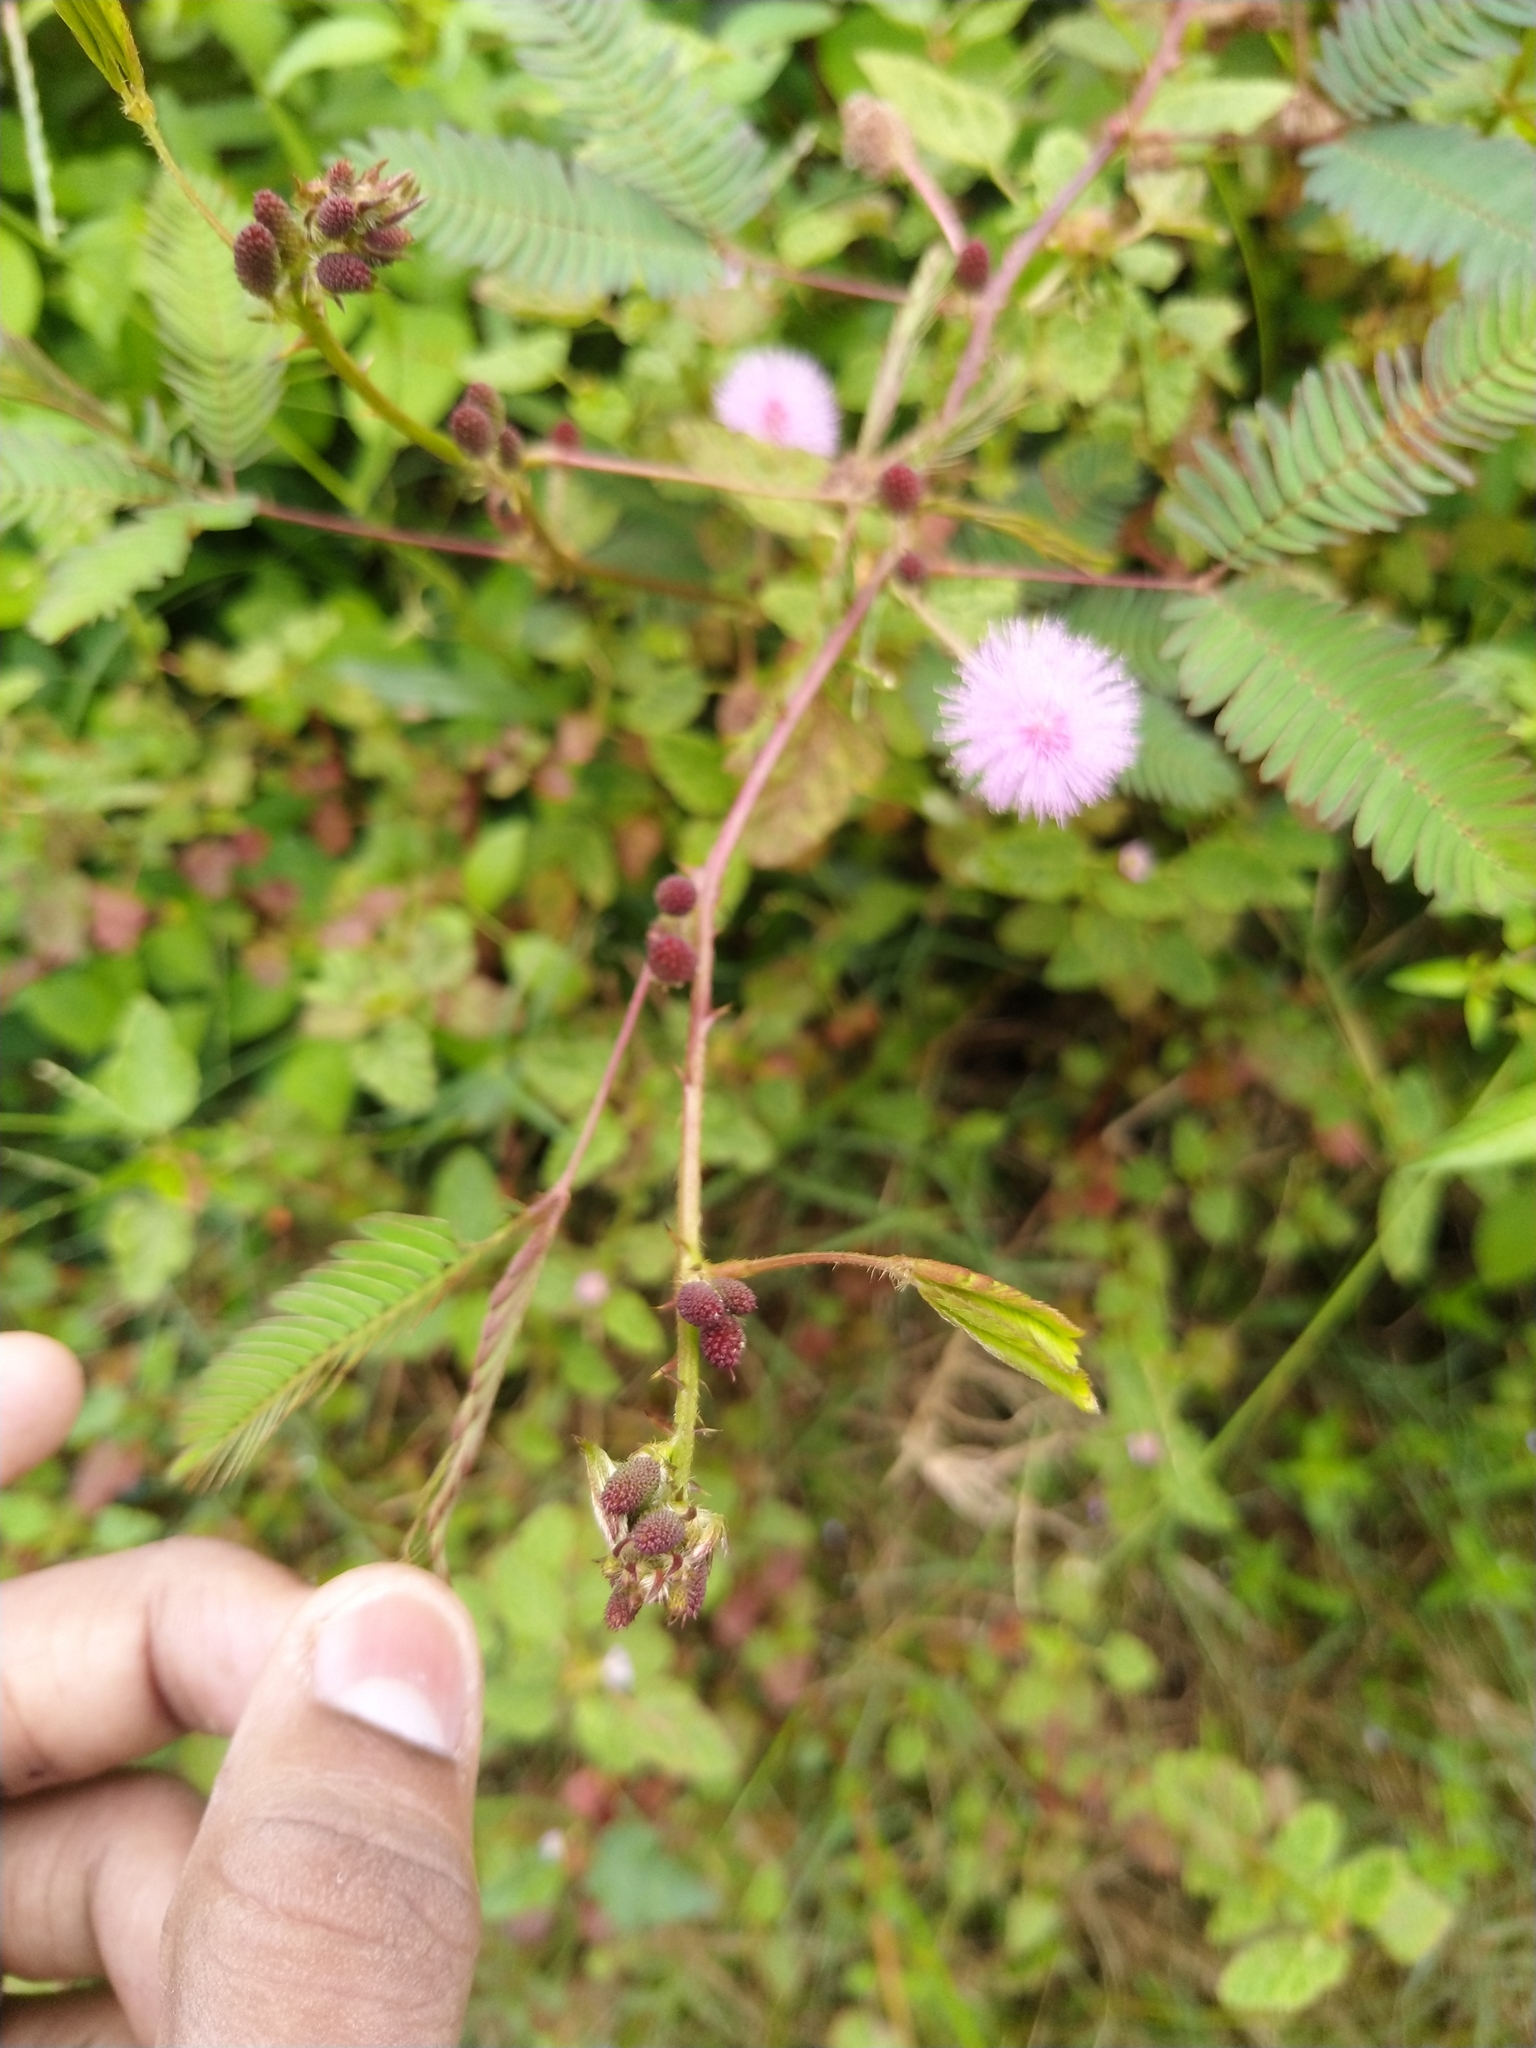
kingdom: Plantae
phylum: Tracheophyta
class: Magnoliopsida
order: Fabales
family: Fabaceae
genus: Mimosa
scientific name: Mimosa pudica
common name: Sensitive plant
